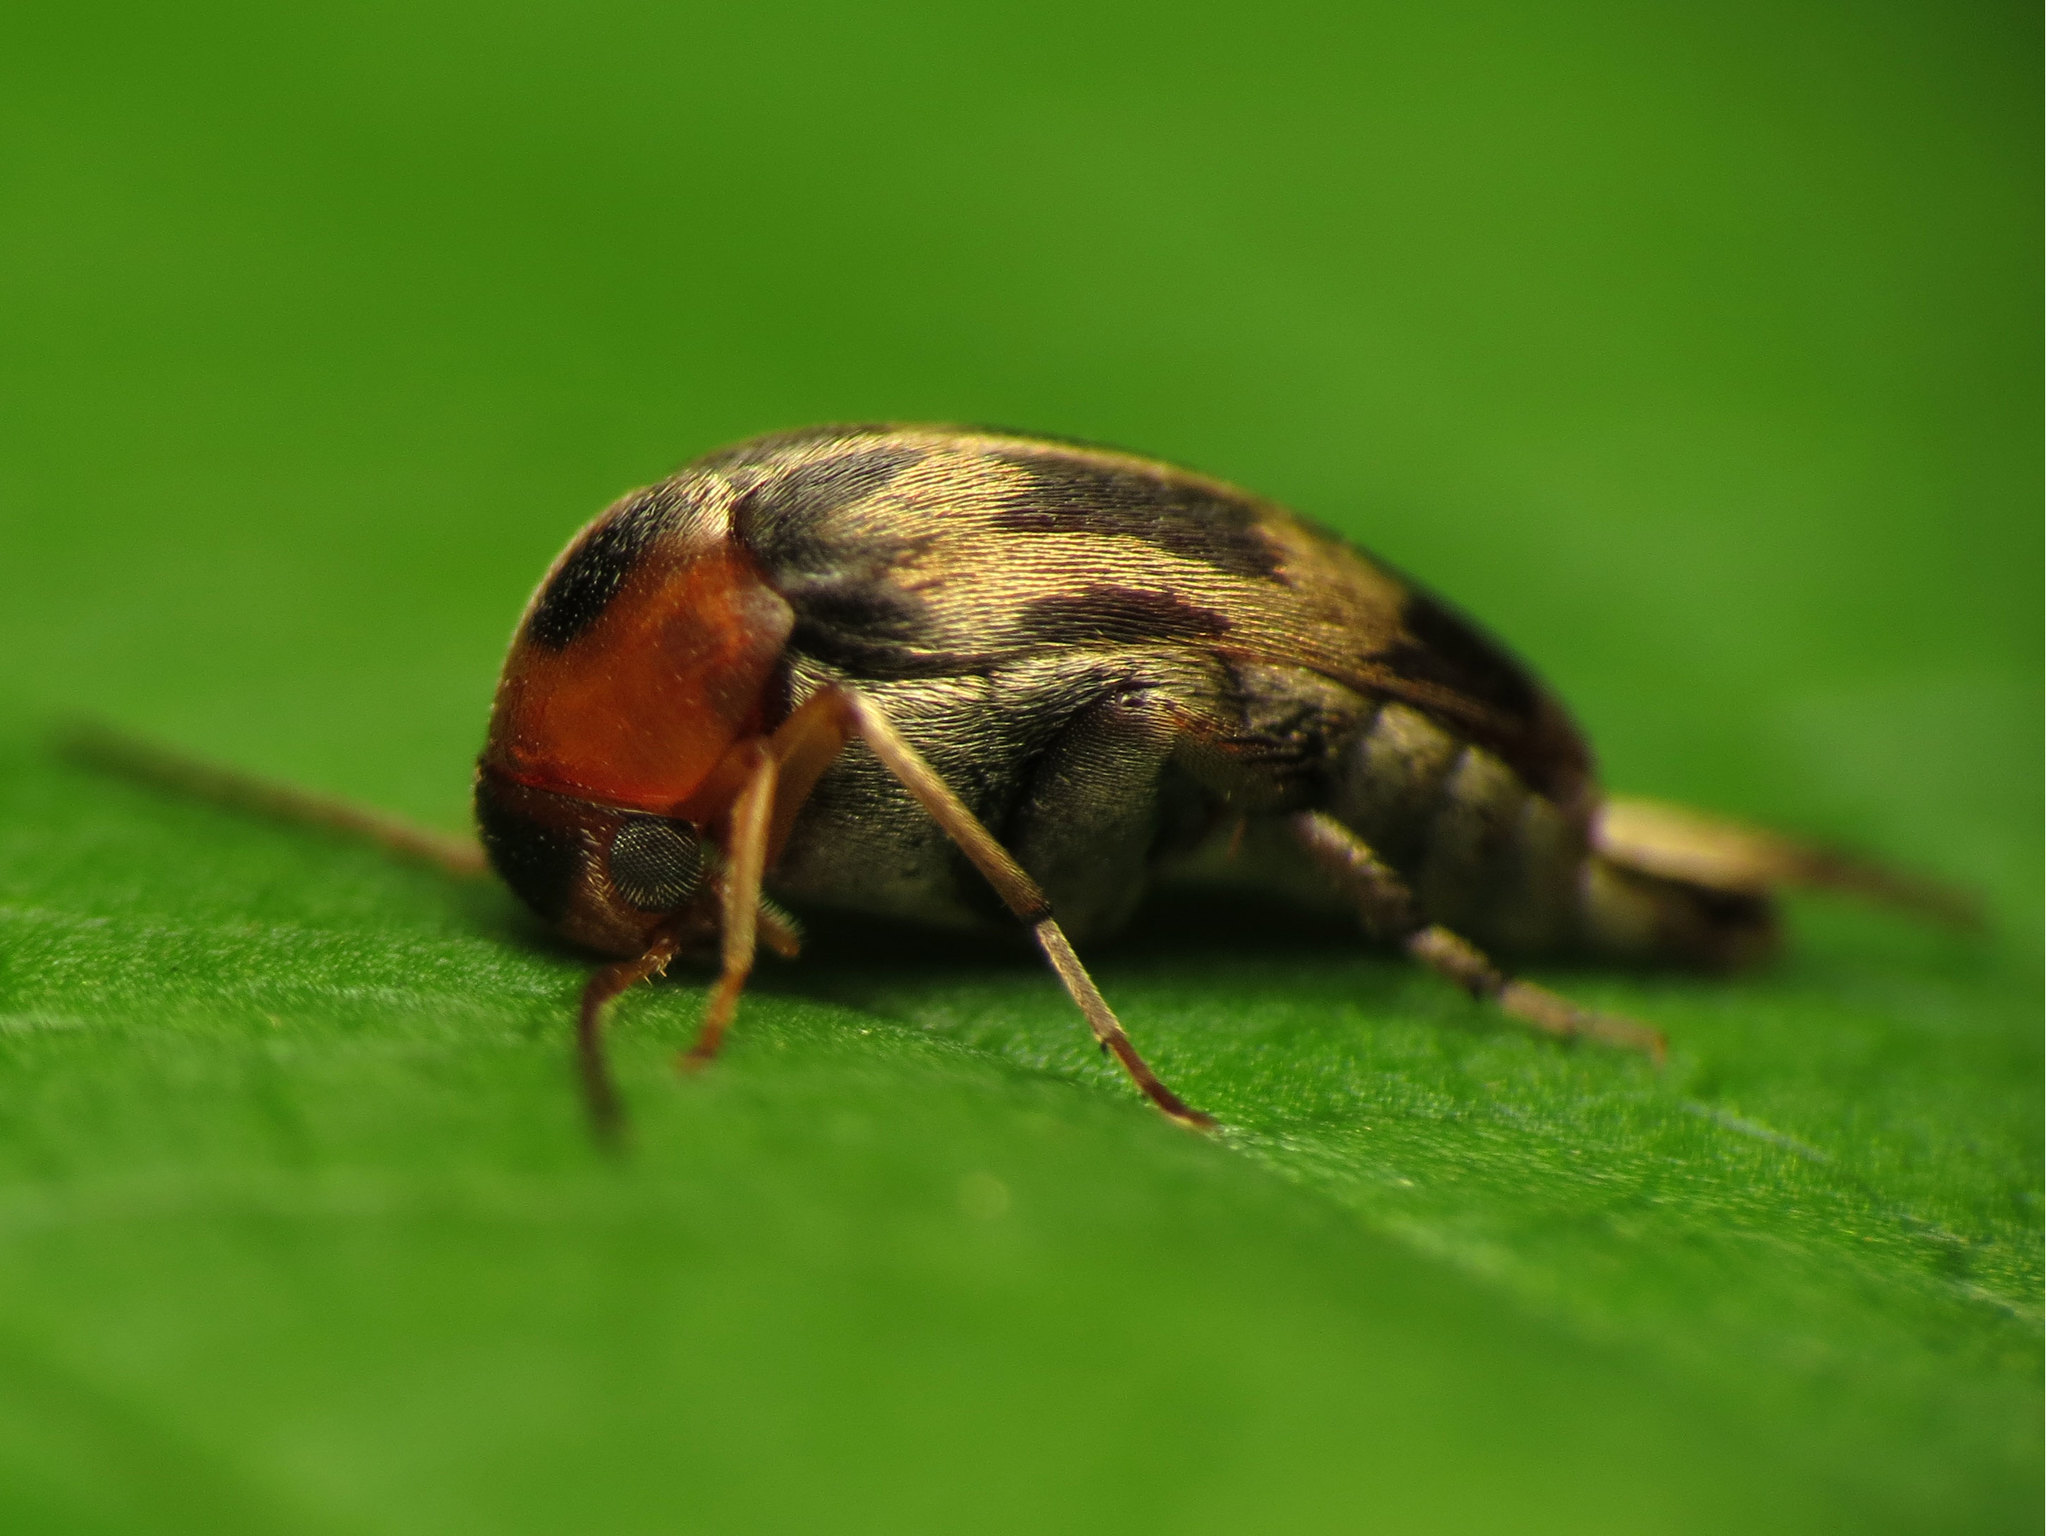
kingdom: Animalia
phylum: Arthropoda
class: Insecta
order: Coleoptera
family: Mordellidae
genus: Falsomordellistena
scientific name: Falsomordellistena hebraica
